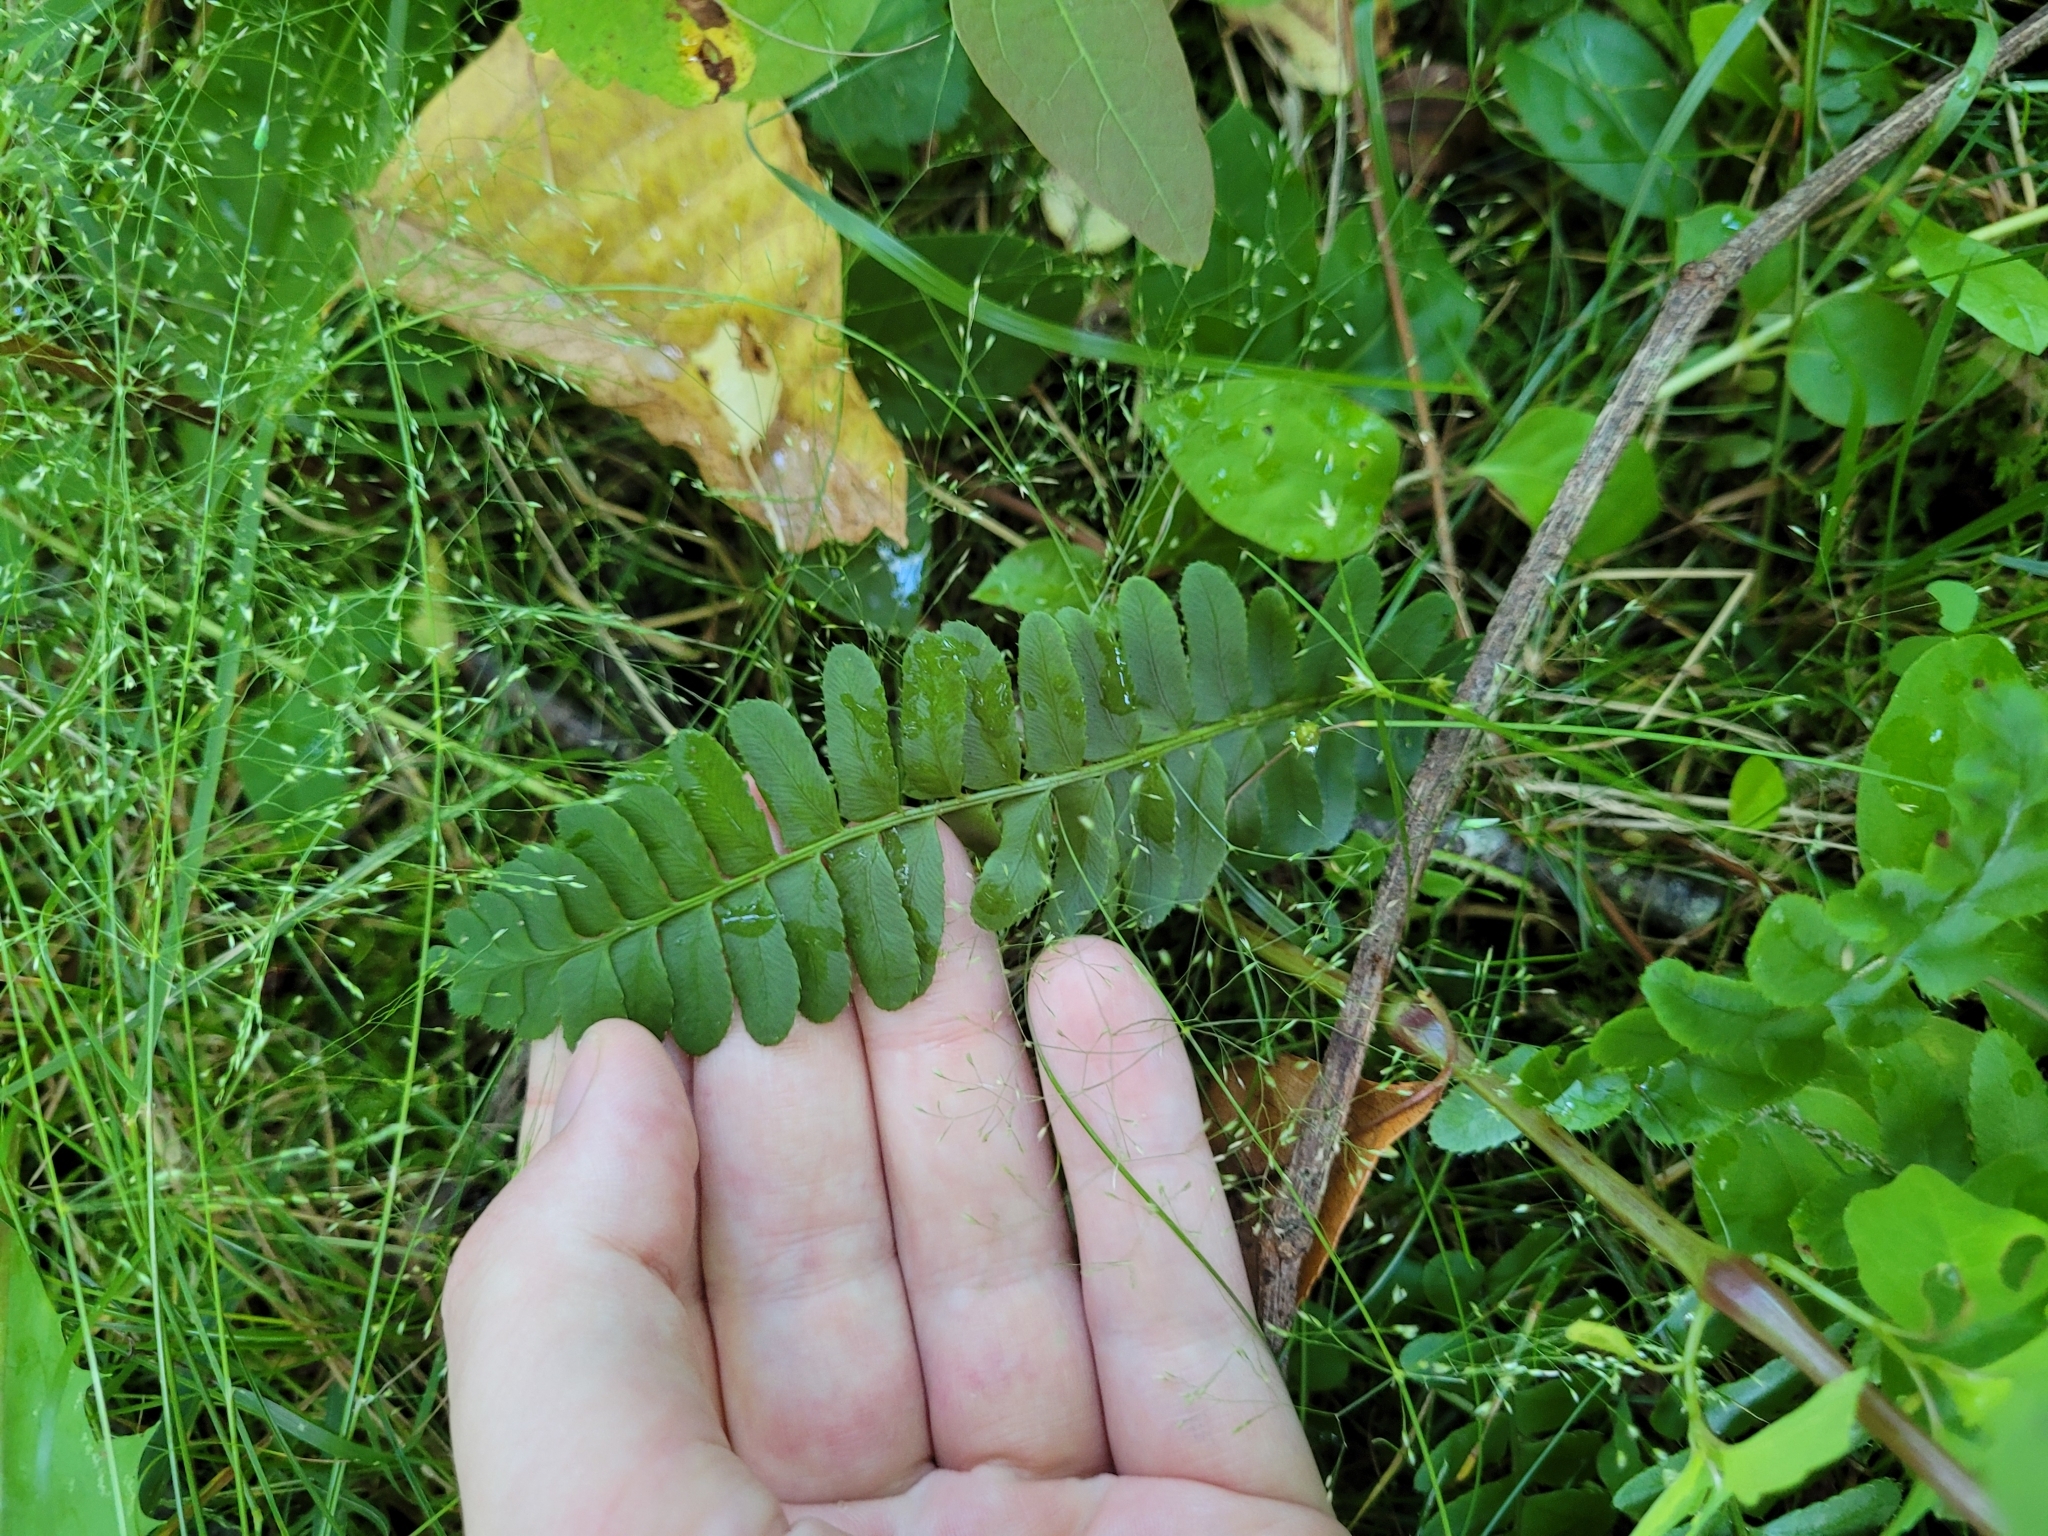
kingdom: Plantae
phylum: Tracheophyta
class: Polypodiopsida
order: Polypodiales
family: Dryopteridaceae
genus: Polystichum
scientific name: Polystichum acrostichoides
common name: Christmas fern
